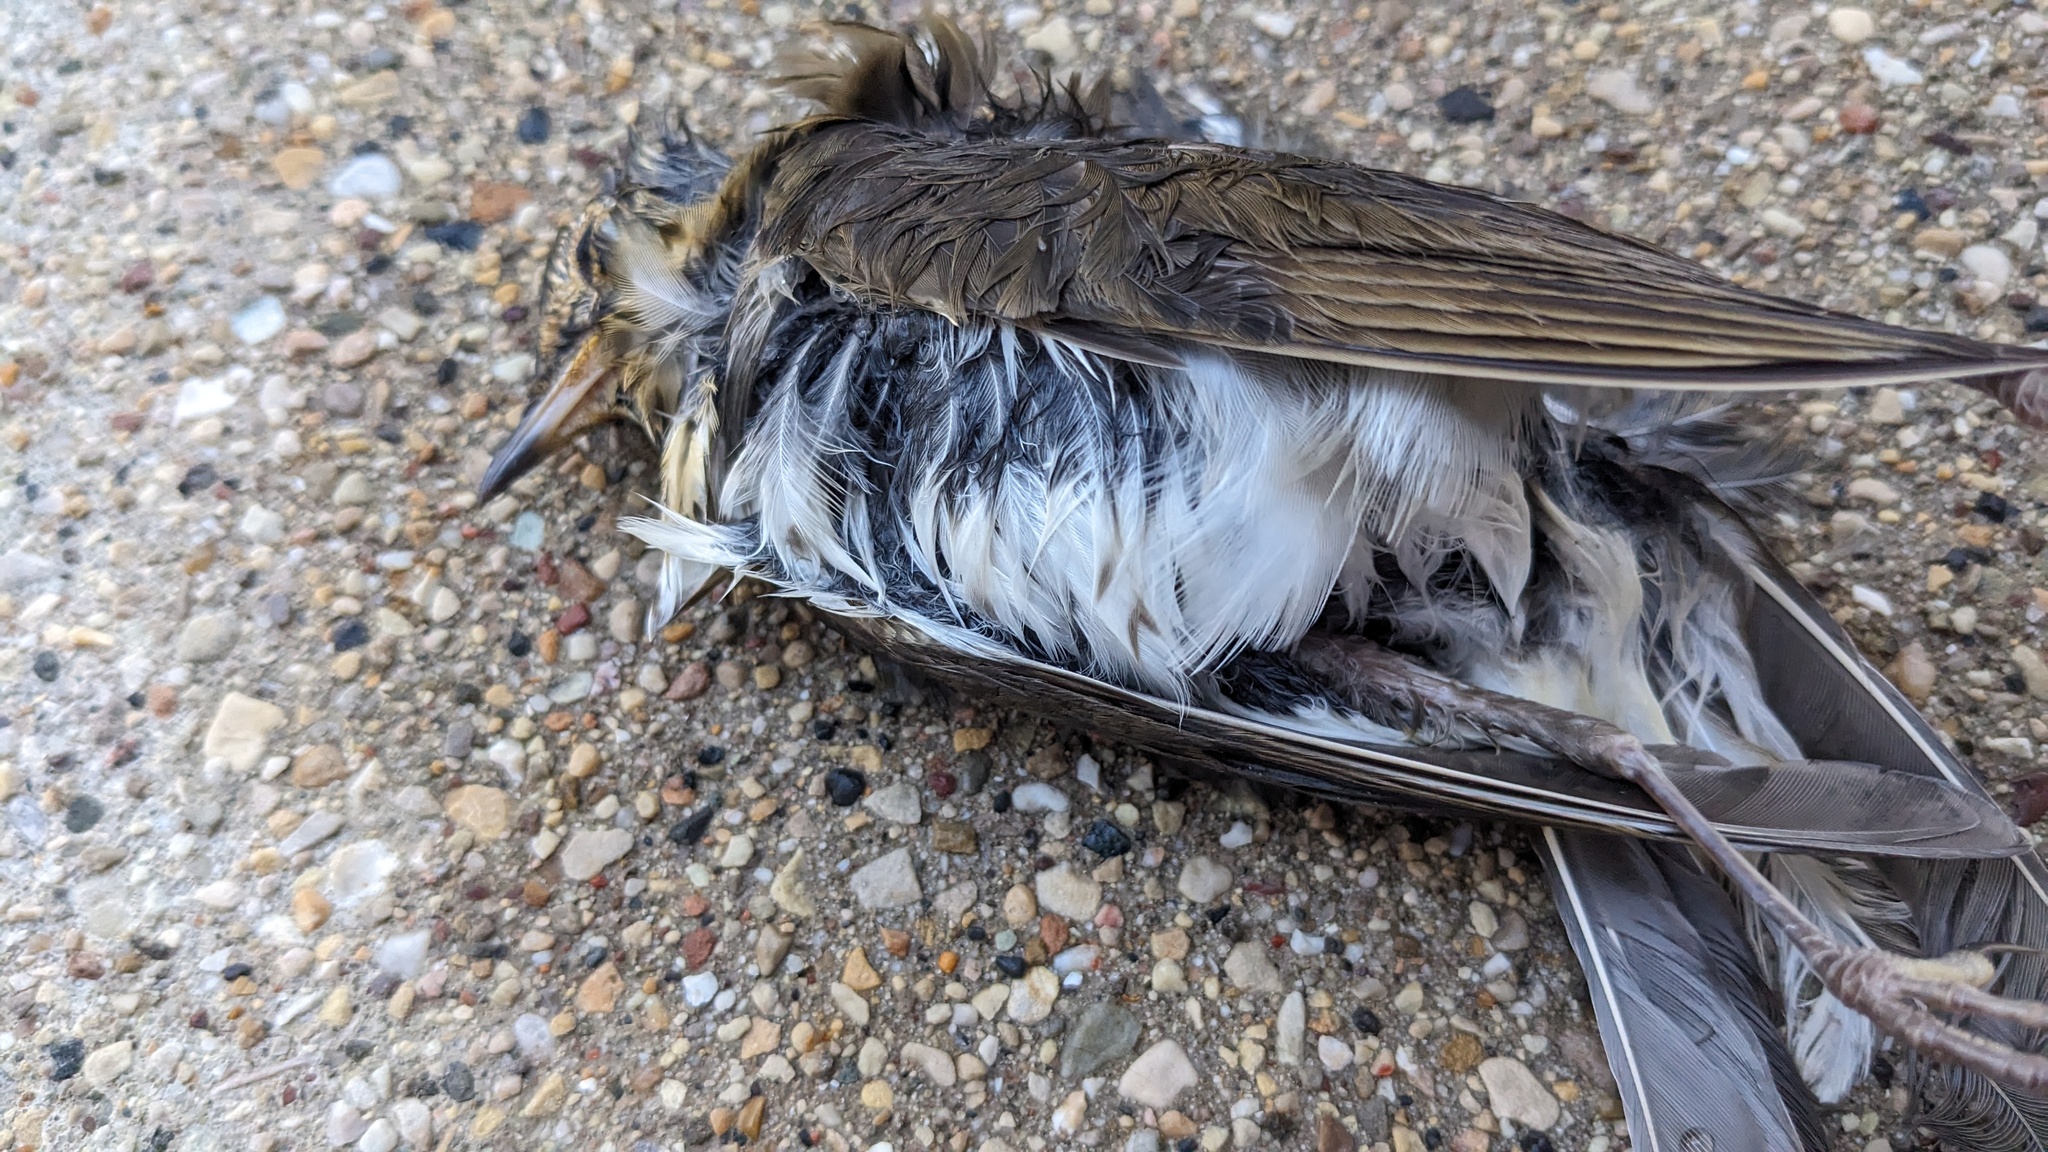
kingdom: Animalia
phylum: Chordata
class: Aves
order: Passeriformes
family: Turdidae
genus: Catharus
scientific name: Catharus ustulatus
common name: Swainson's thrush
